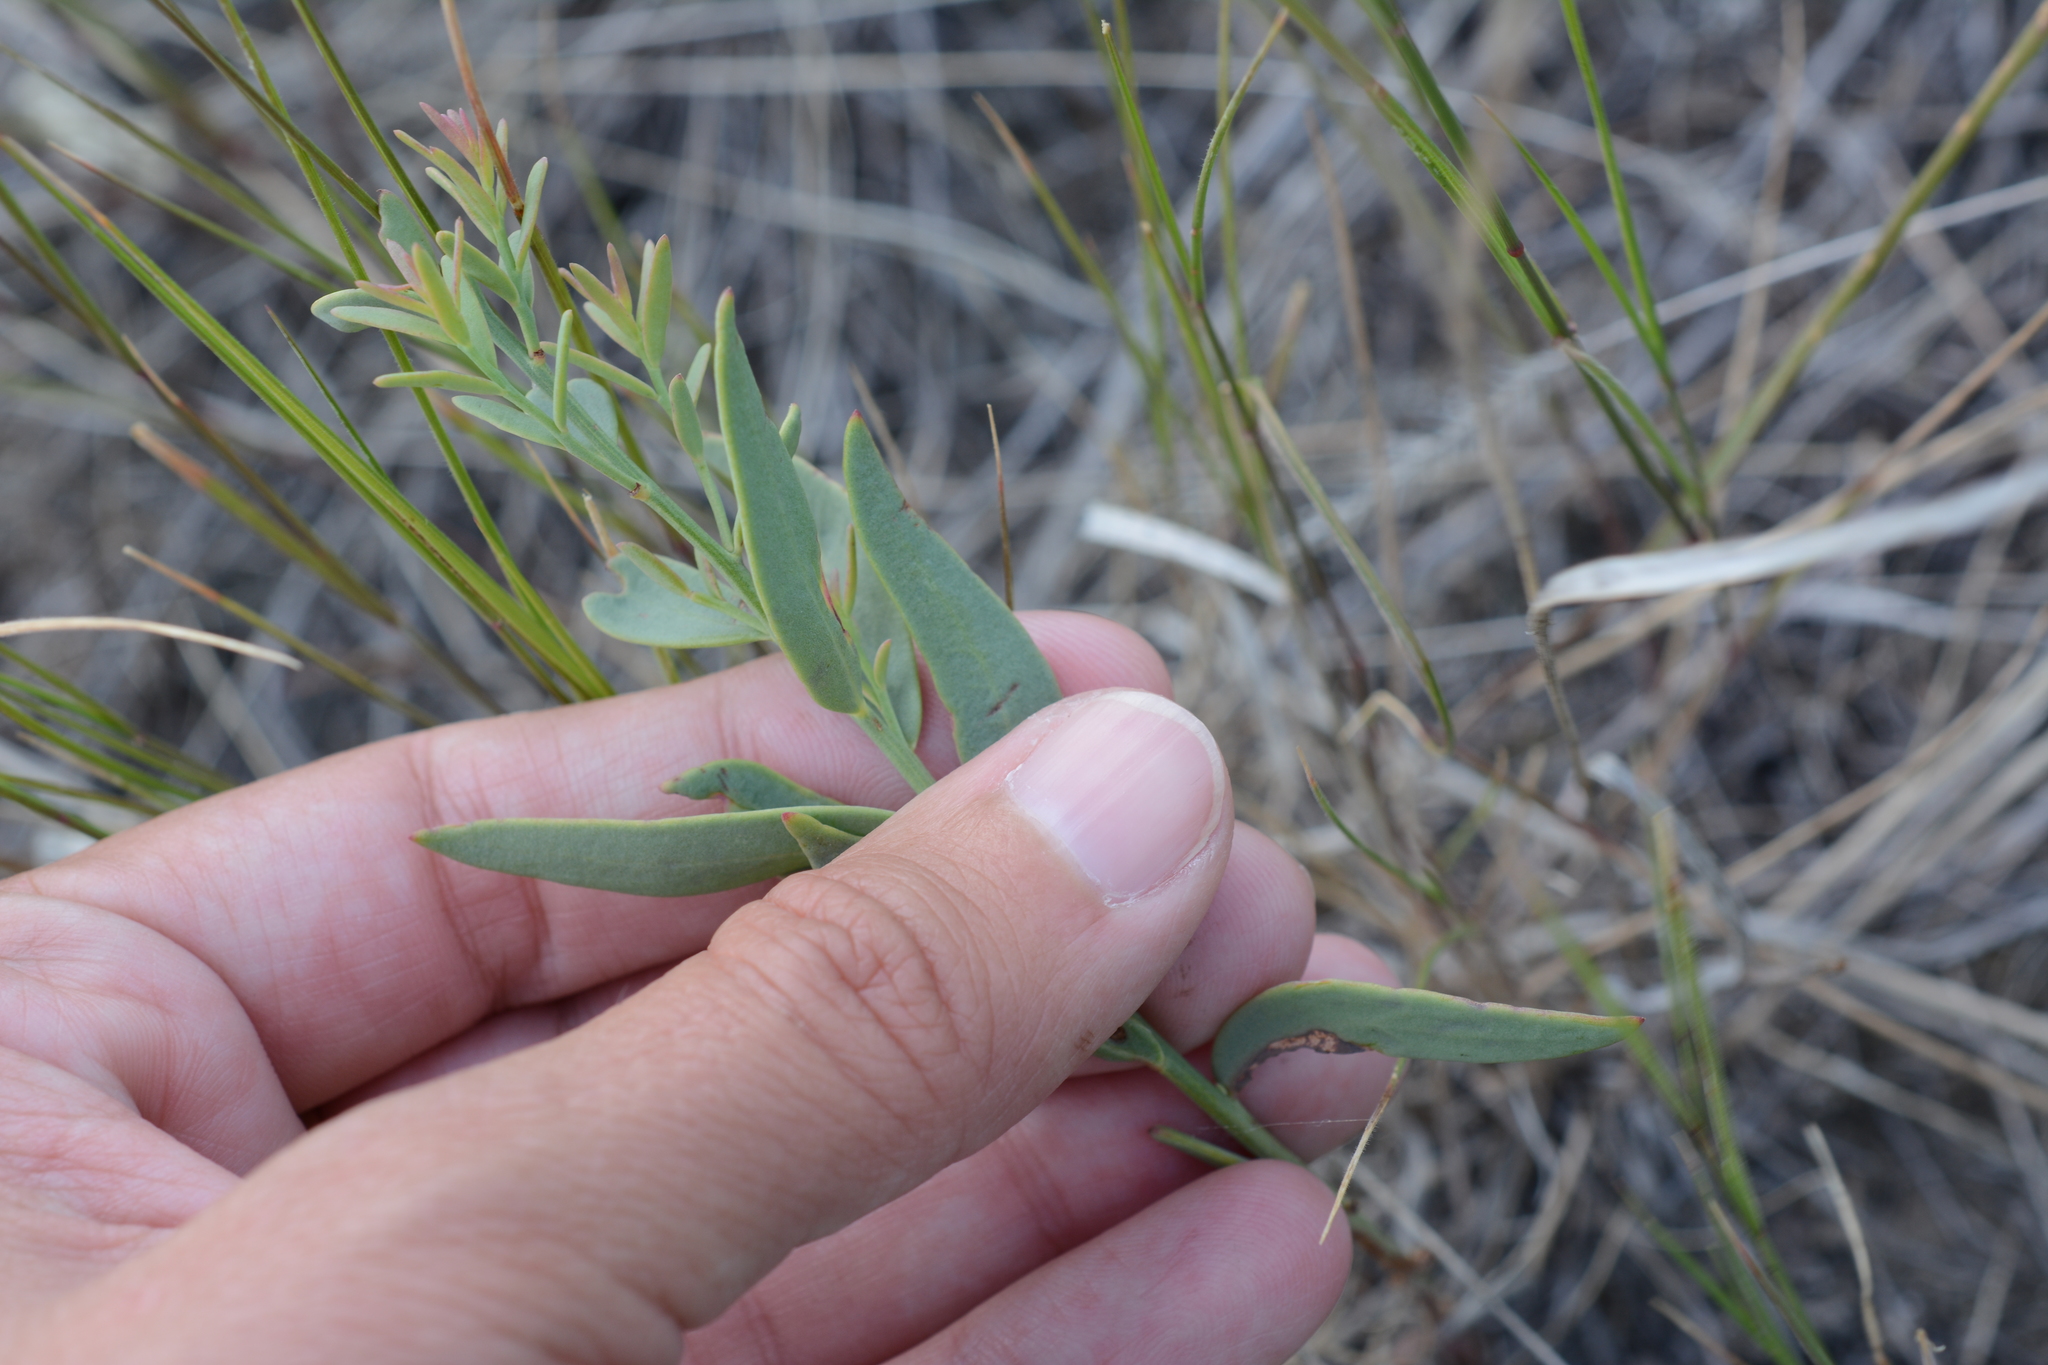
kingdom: Plantae
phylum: Tracheophyta
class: Magnoliopsida
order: Santalales
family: Comandraceae
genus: Comandra
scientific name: Comandra umbellata
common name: Bastard toadflax
